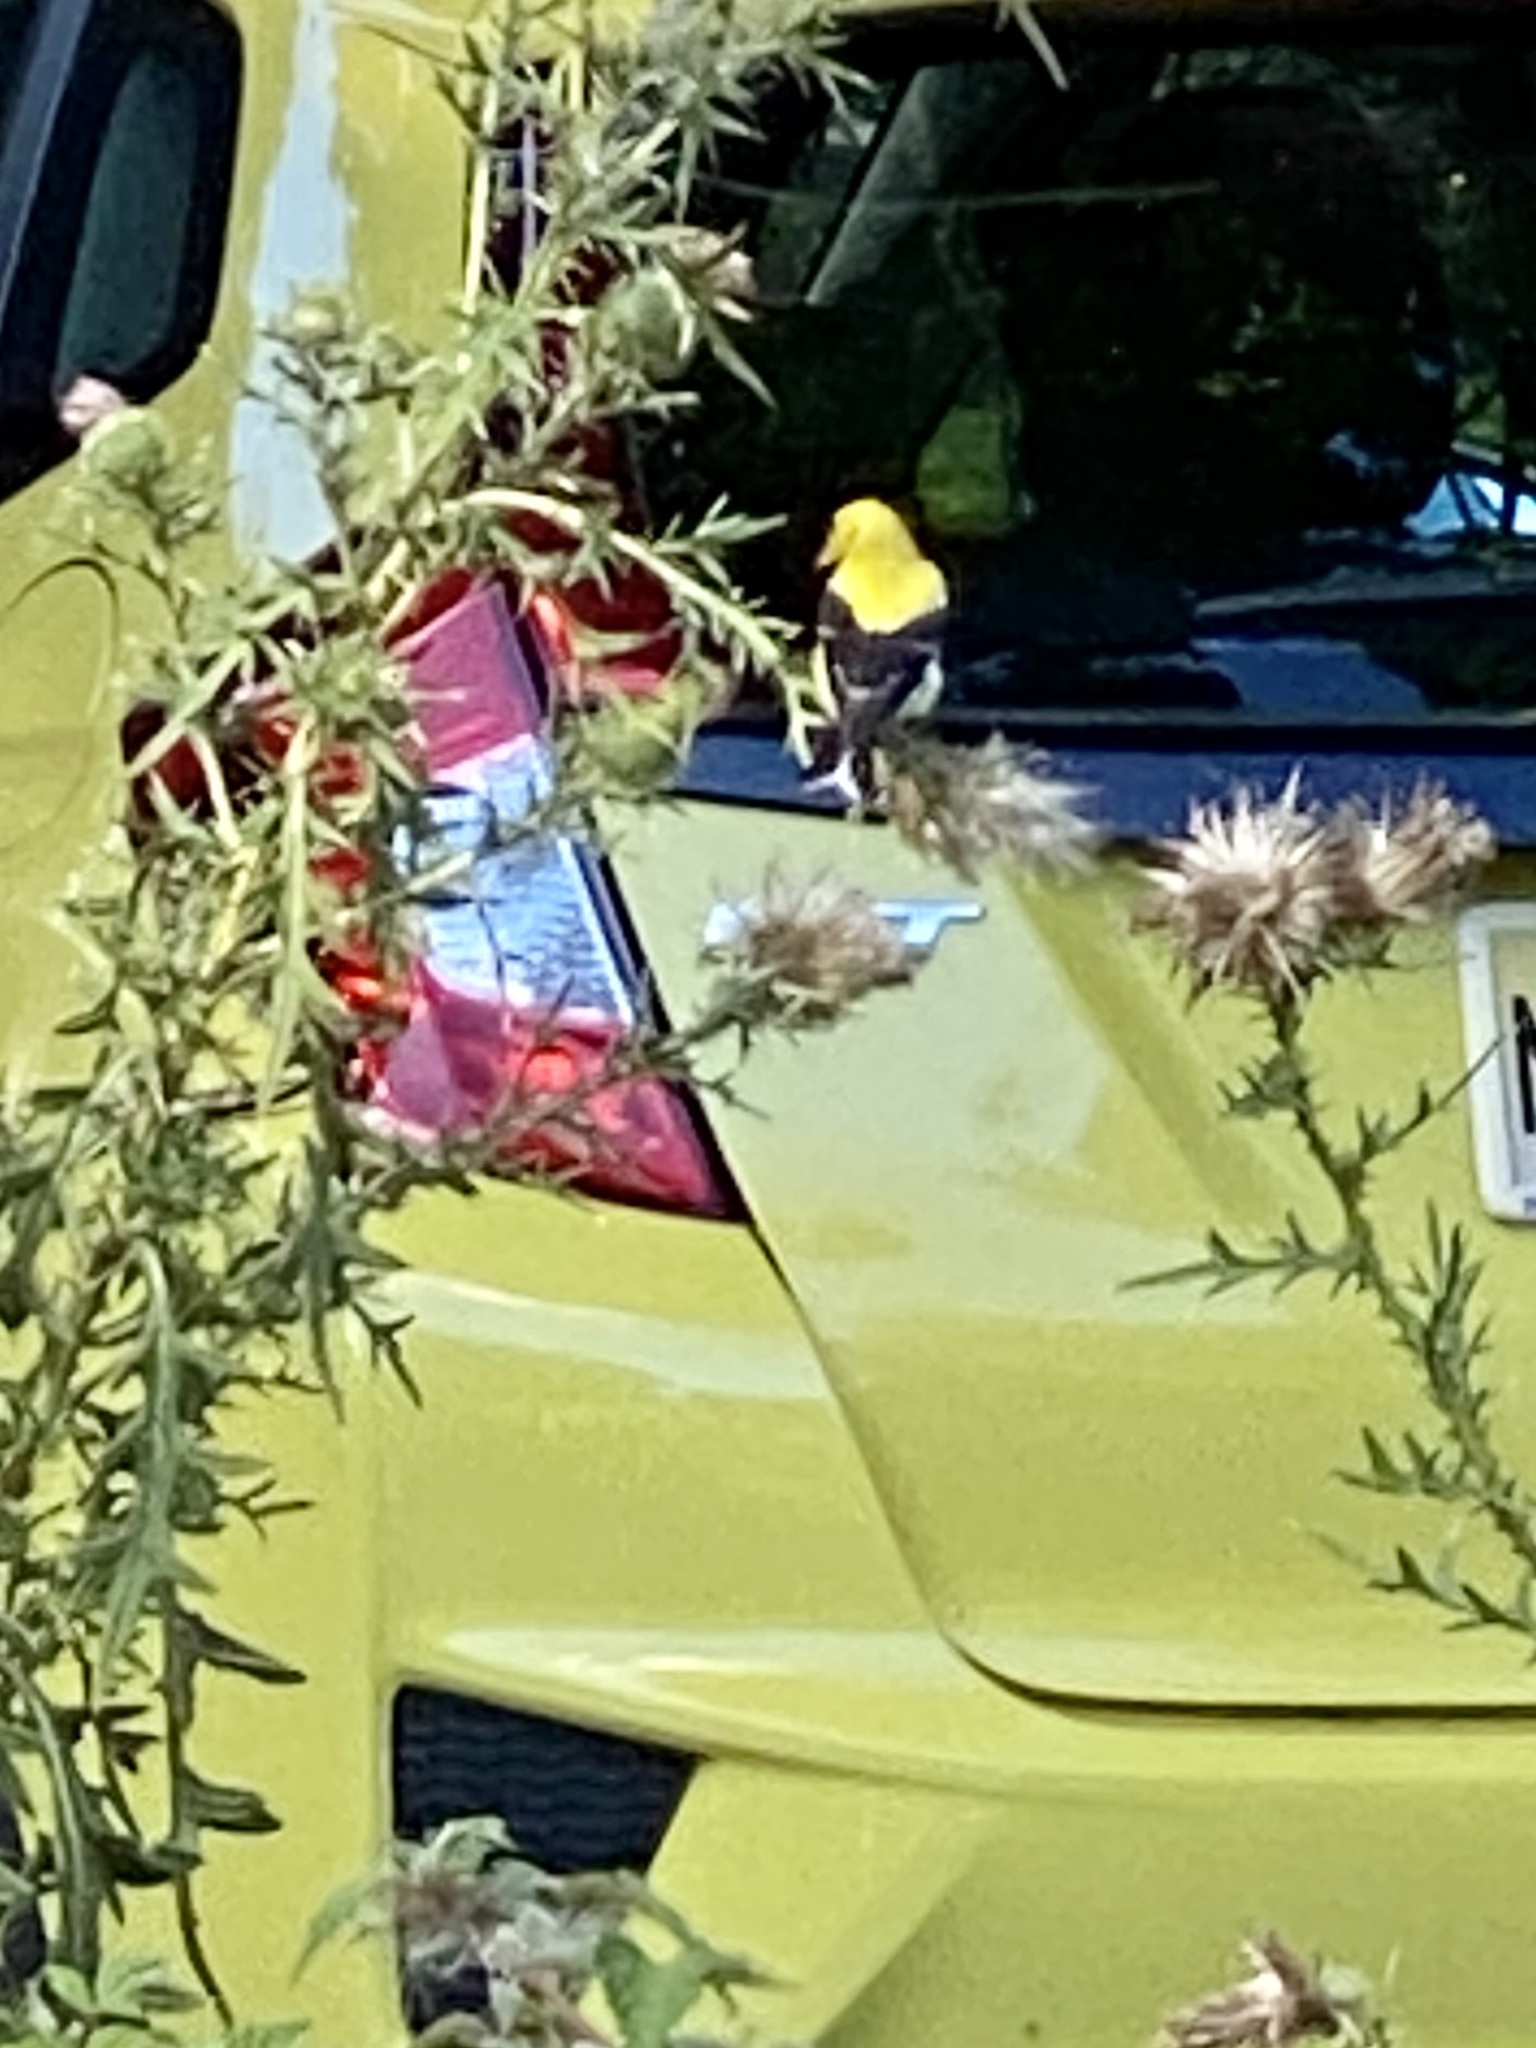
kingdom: Animalia
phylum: Chordata
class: Aves
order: Passeriformes
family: Fringillidae
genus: Spinus
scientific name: Spinus tristis
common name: American goldfinch
